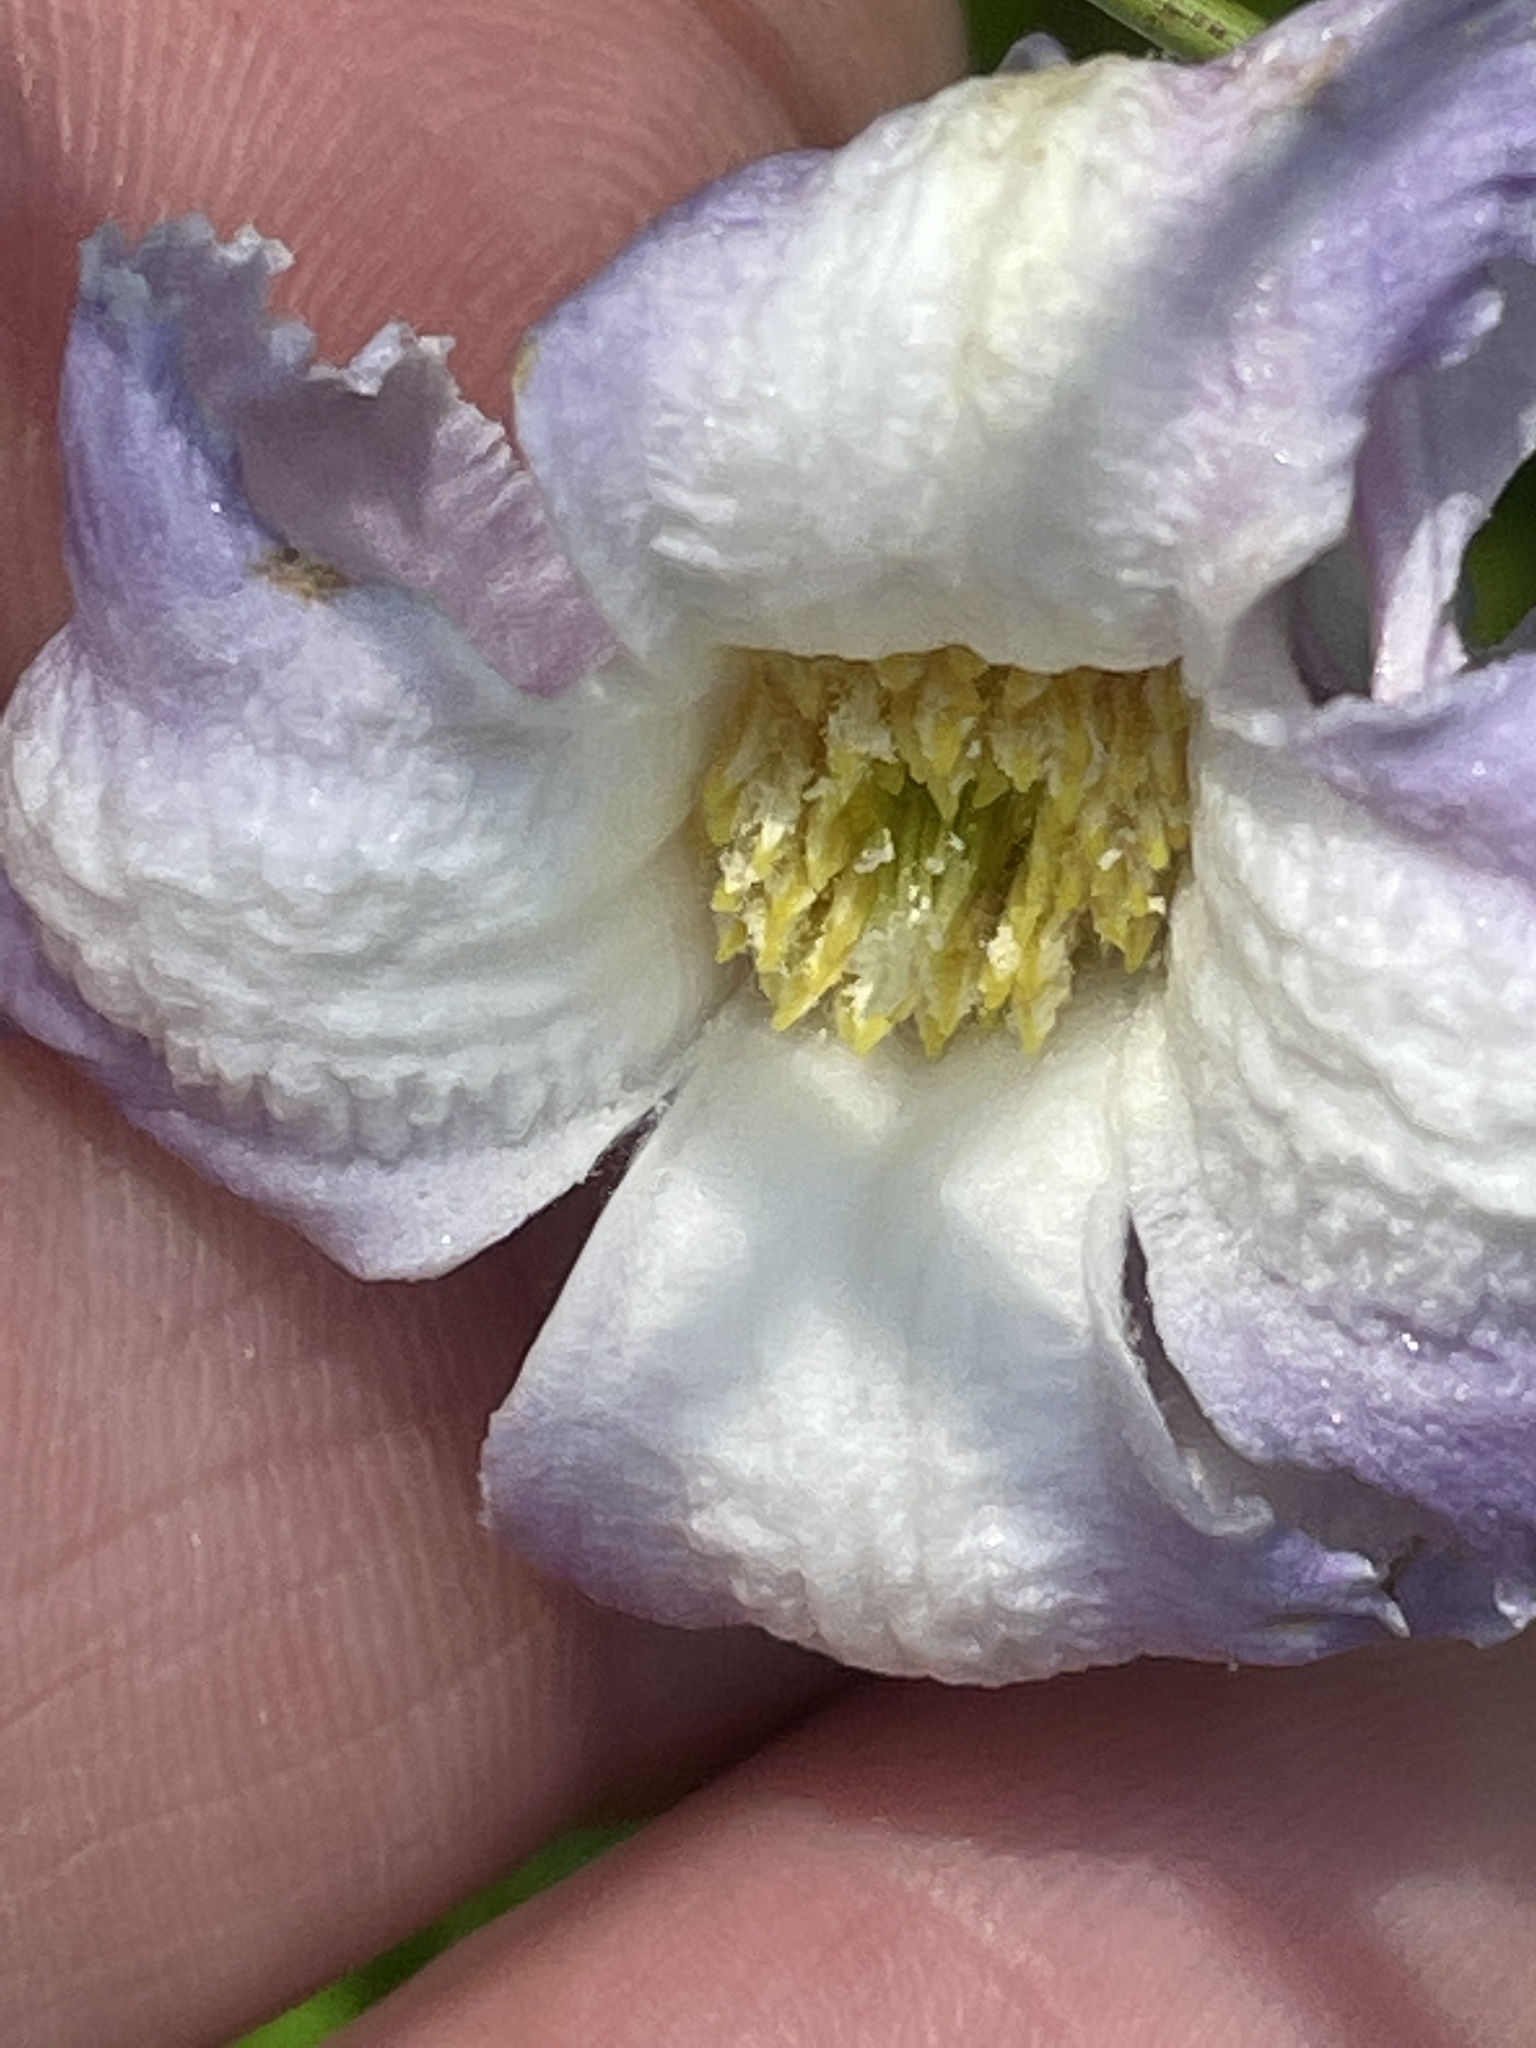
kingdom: Plantae
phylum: Tracheophyta
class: Magnoliopsida
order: Ranunculales
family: Ranunculaceae
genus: Clematis
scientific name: Clematis crispa
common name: Curly clematis
